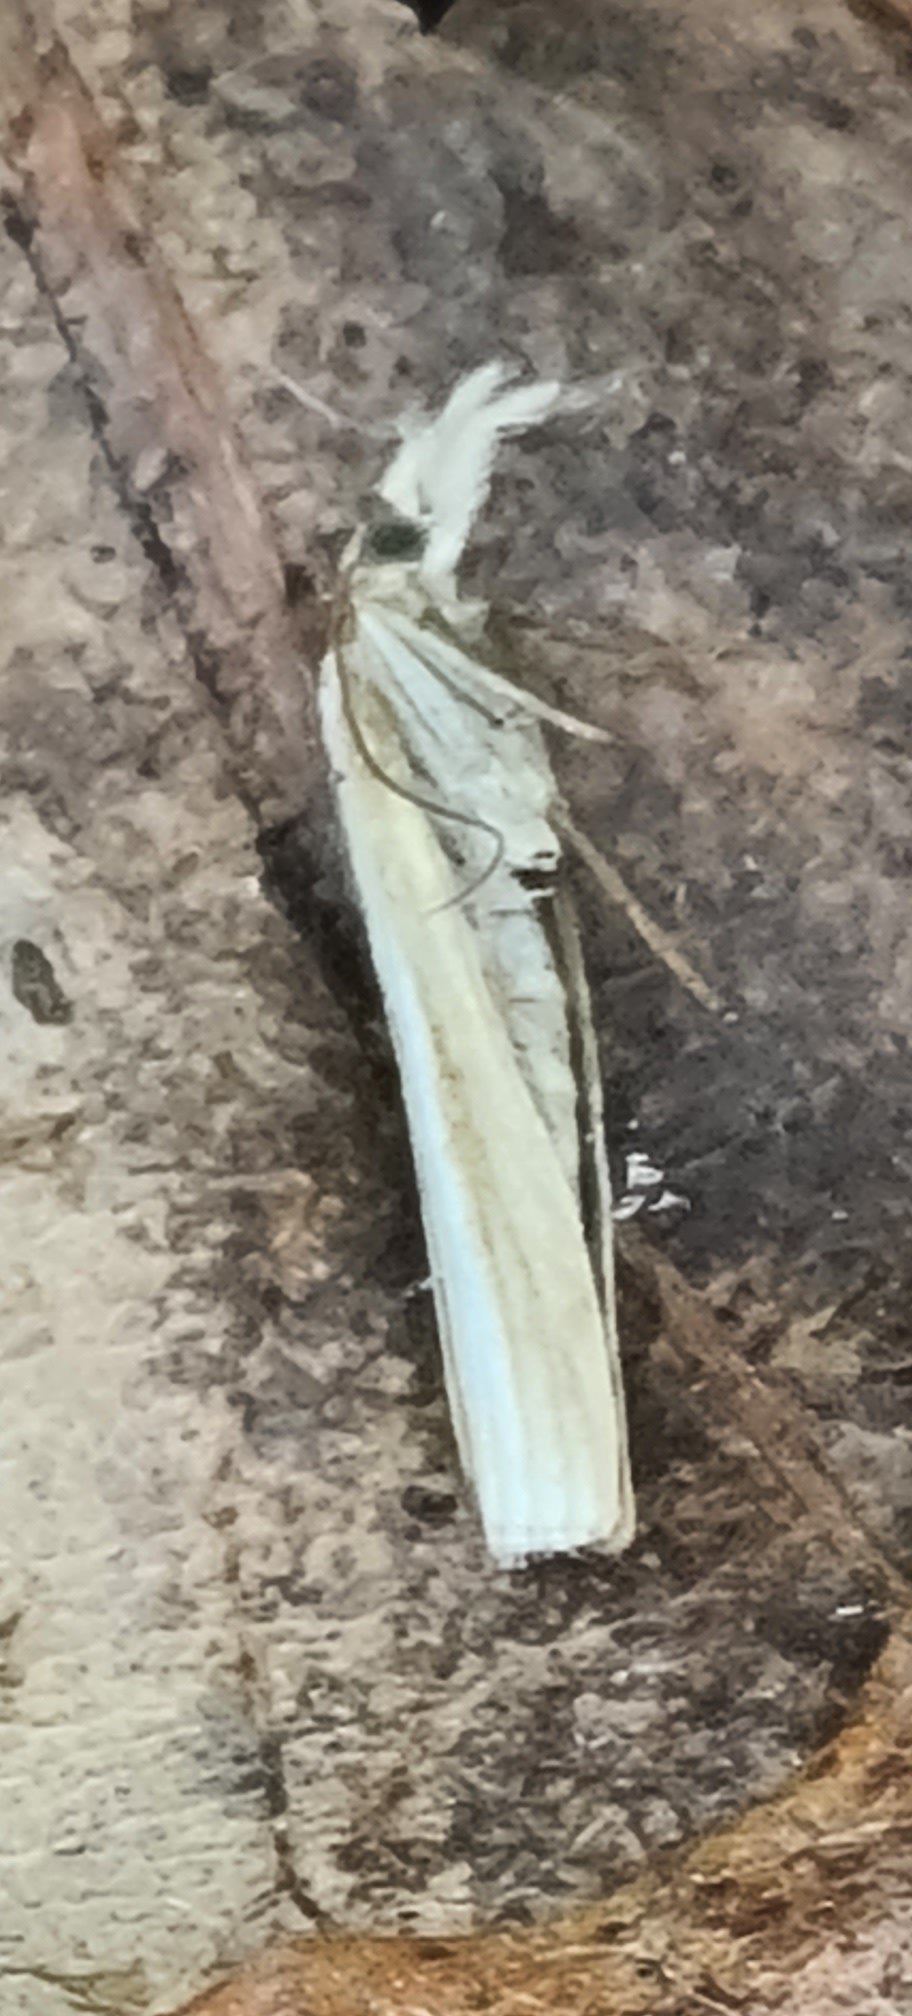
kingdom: Animalia
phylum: Arthropoda
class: Insecta
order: Lepidoptera
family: Crambidae
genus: Agriphila
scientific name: Agriphila tristellus
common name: Common grass-veneer
